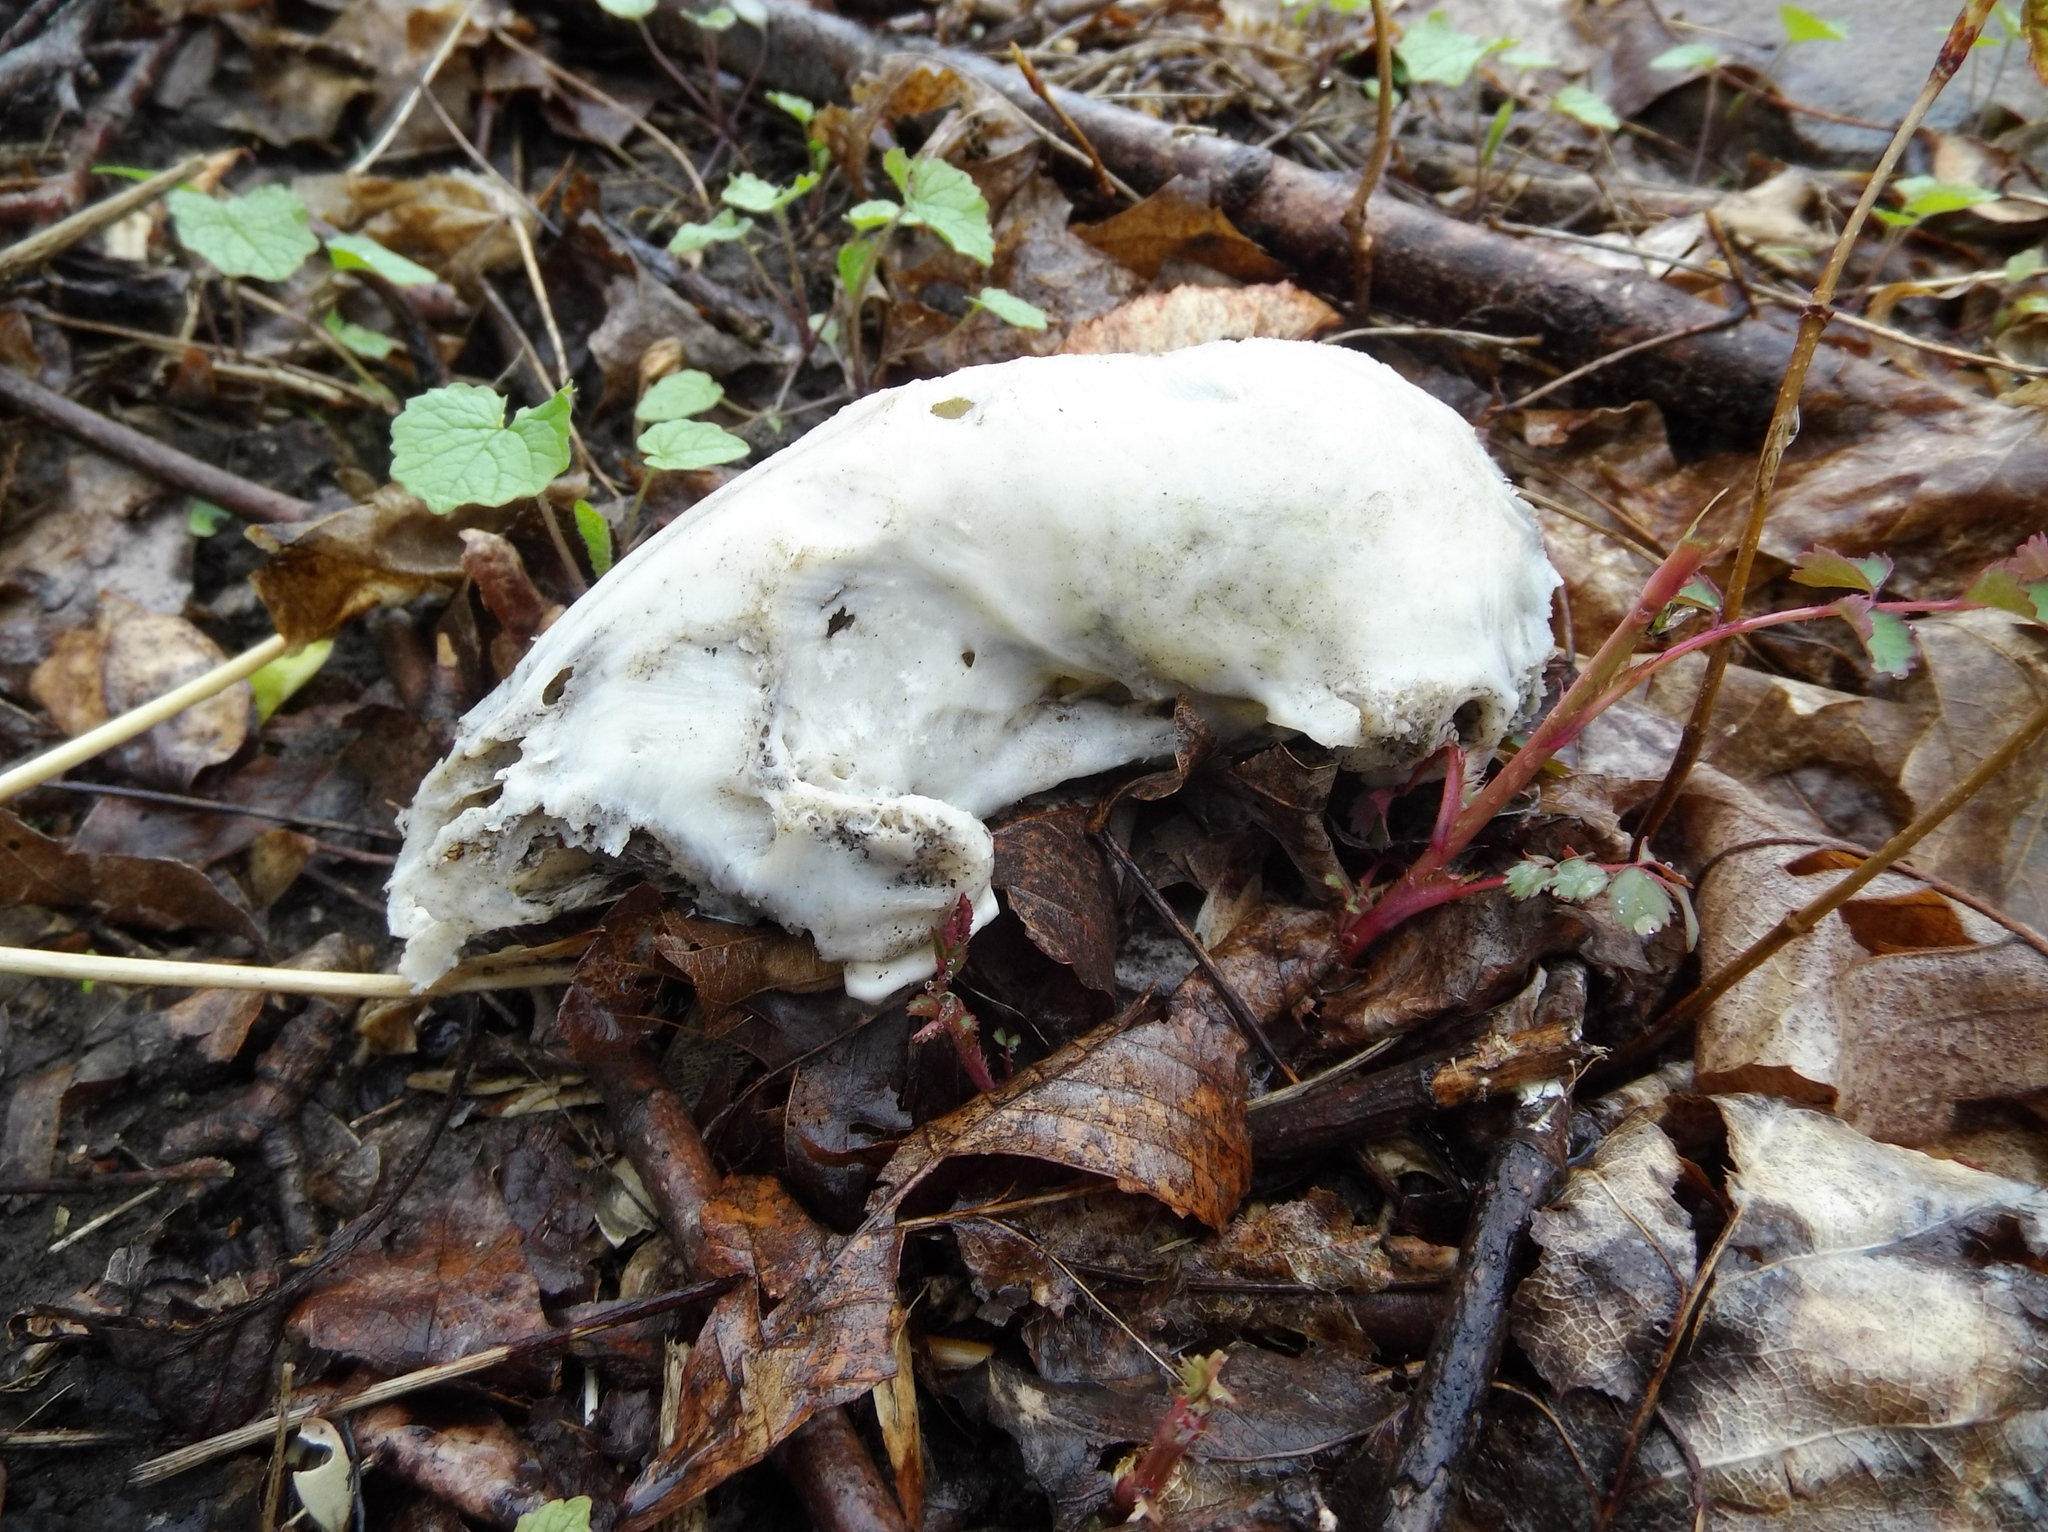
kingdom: Animalia
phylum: Chordata
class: Mammalia
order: Carnivora
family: Procyonidae
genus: Procyon
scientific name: Procyon lotor
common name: Raccoon
